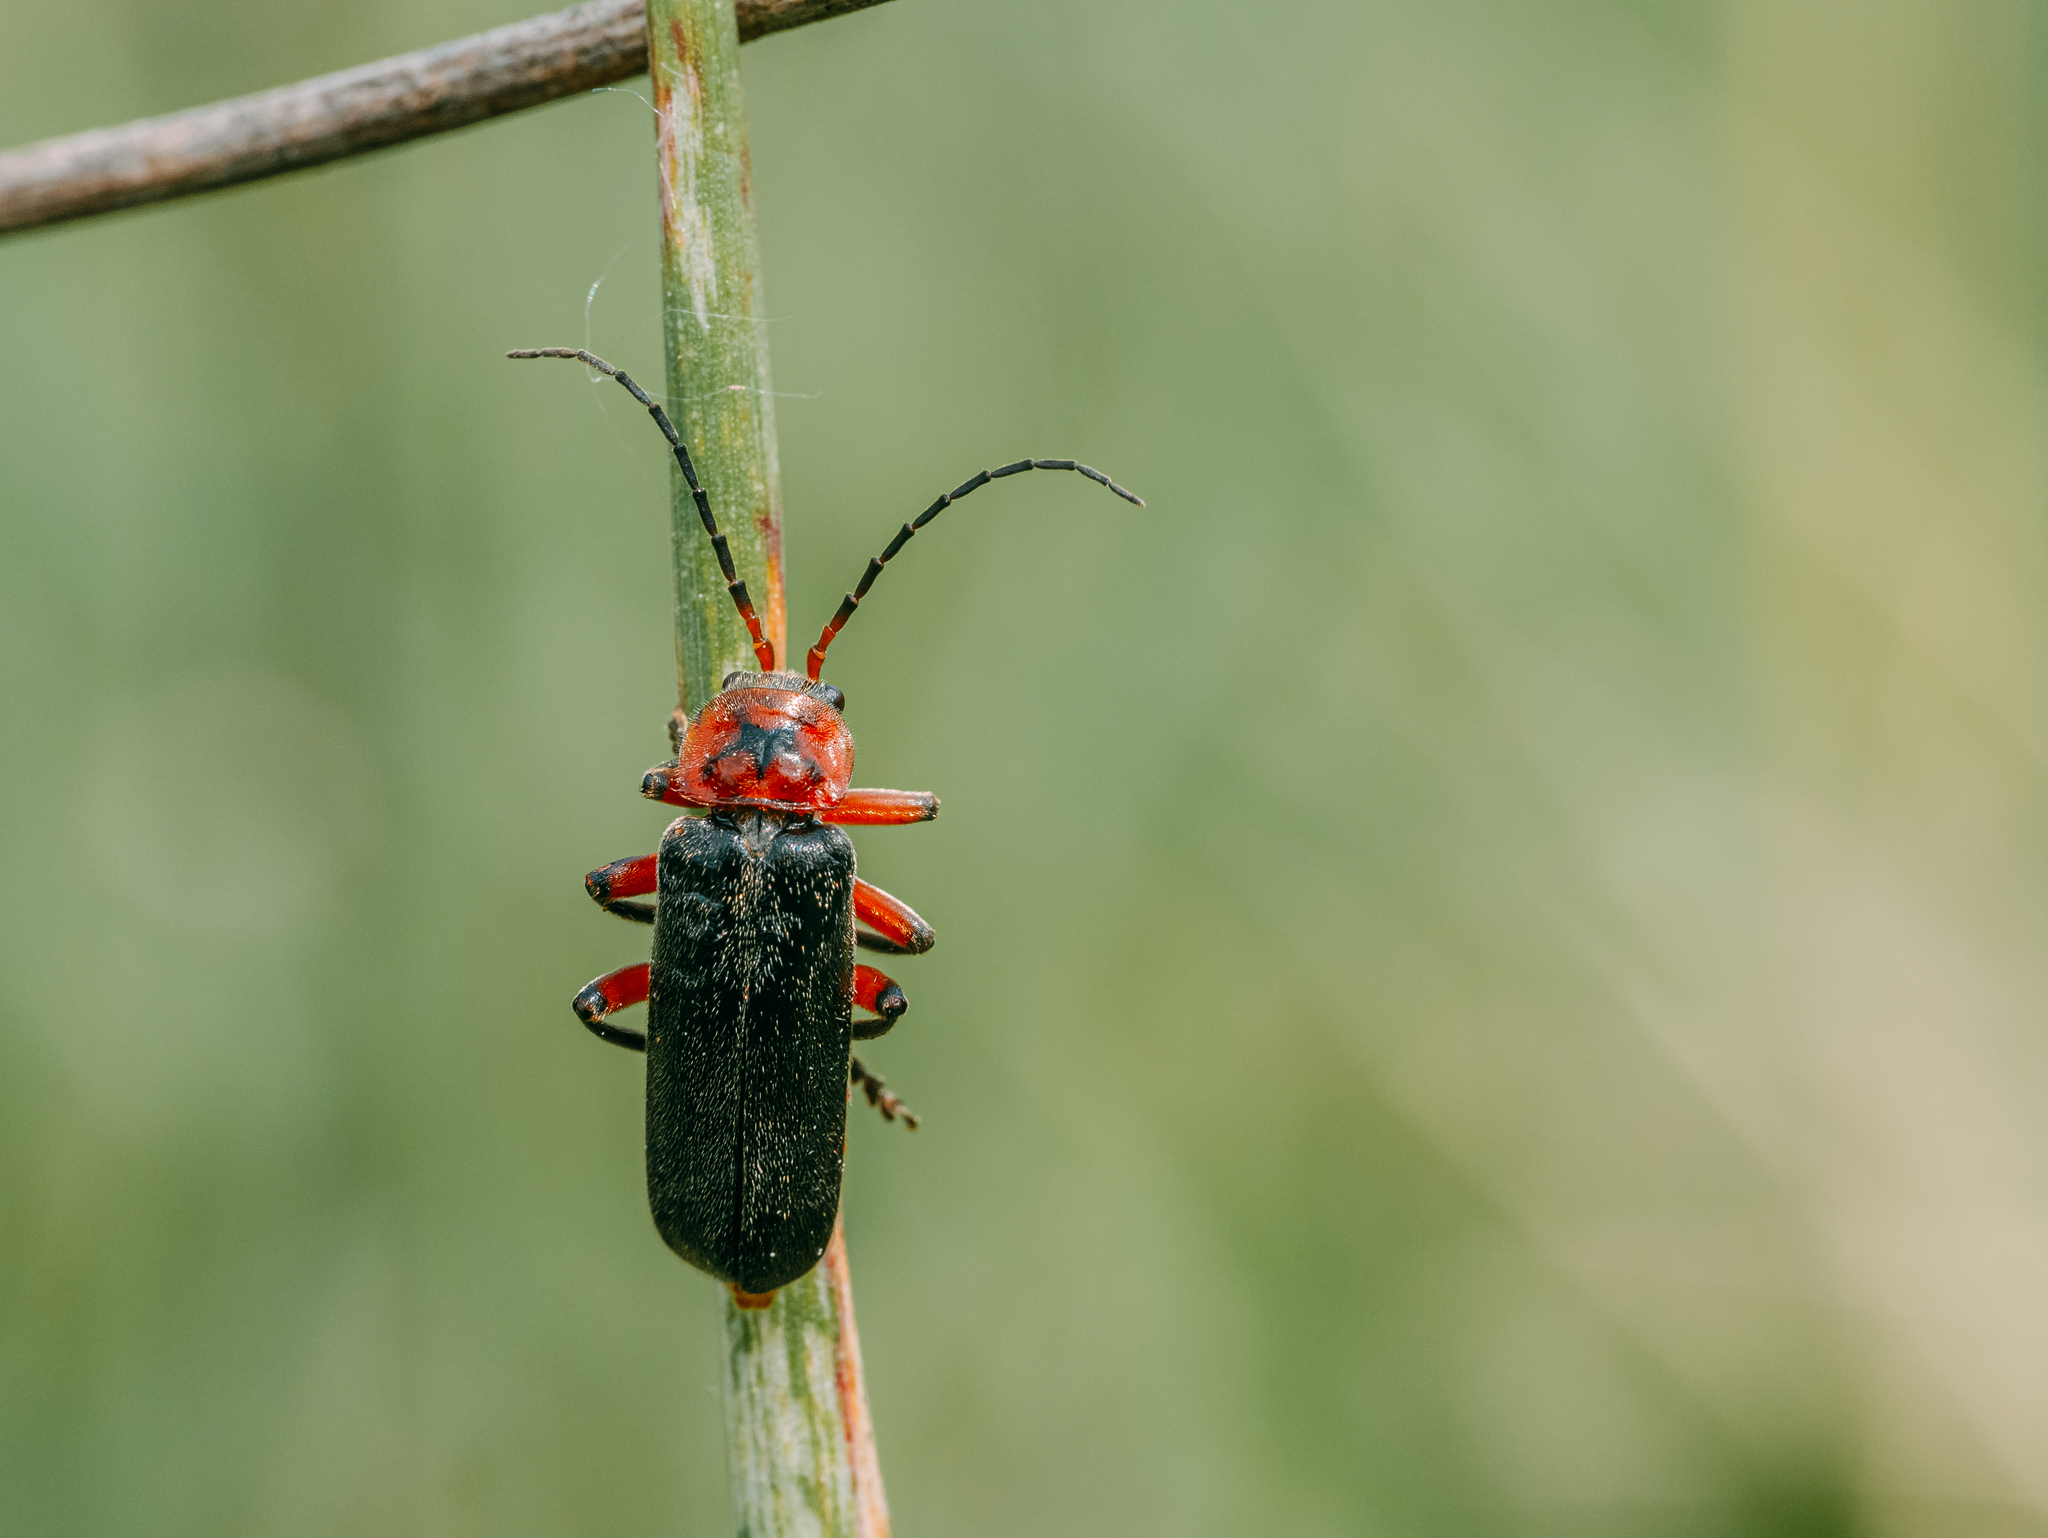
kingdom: Animalia
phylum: Arthropoda
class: Insecta
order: Coleoptera
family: Cantharidae
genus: Cantharis
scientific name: Cantharis rustica
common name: Soldier beetle
